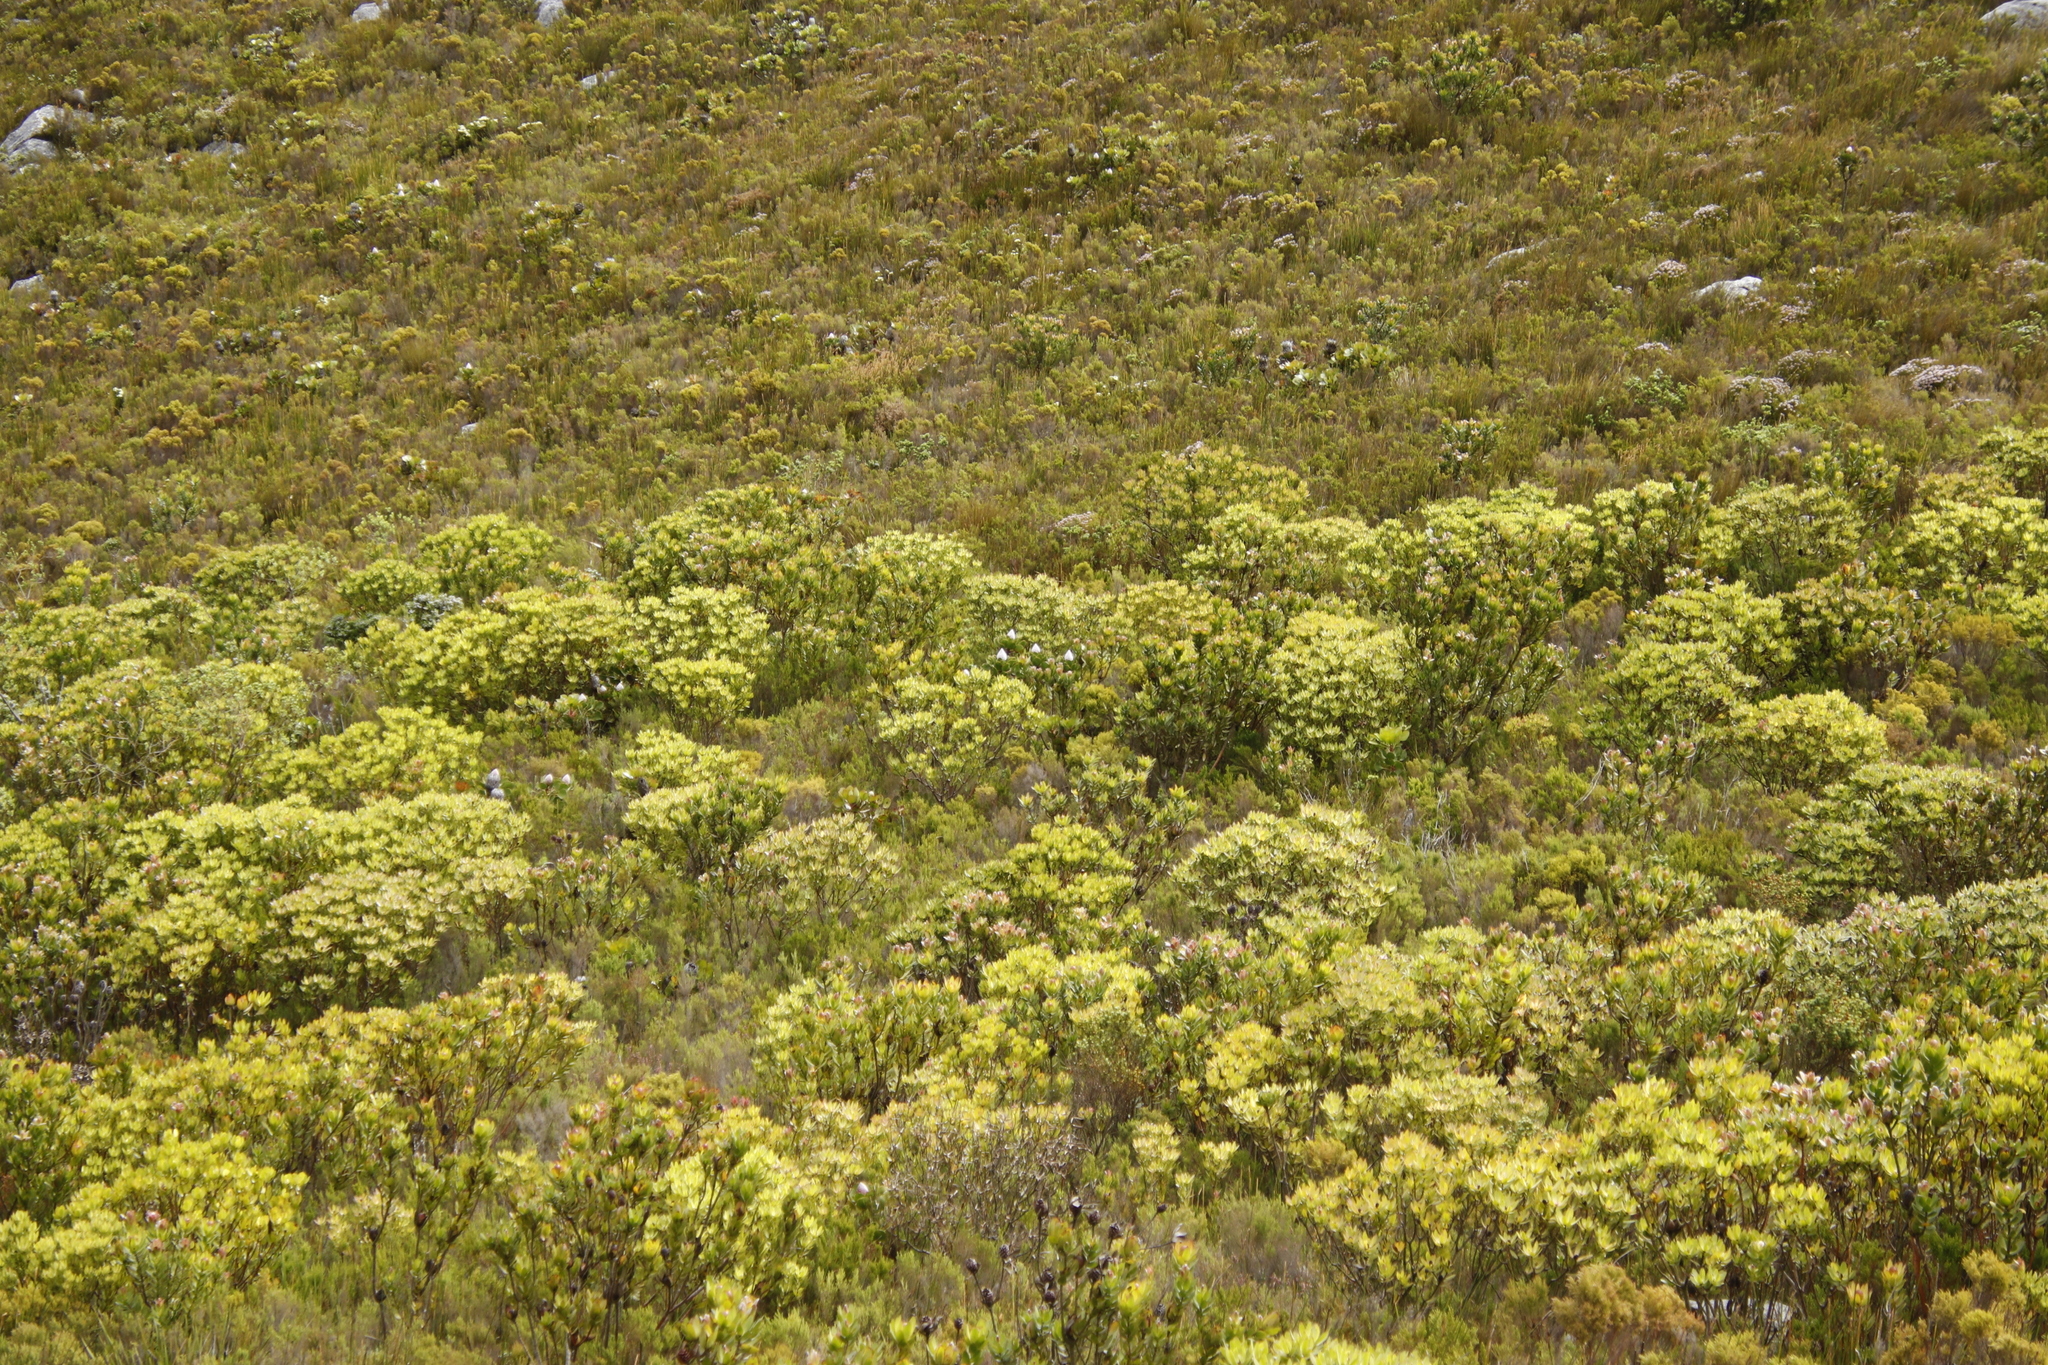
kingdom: Plantae
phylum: Tracheophyta
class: Magnoliopsida
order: Proteales
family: Proteaceae
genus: Protea
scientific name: Protea cynaroides
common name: King protea
